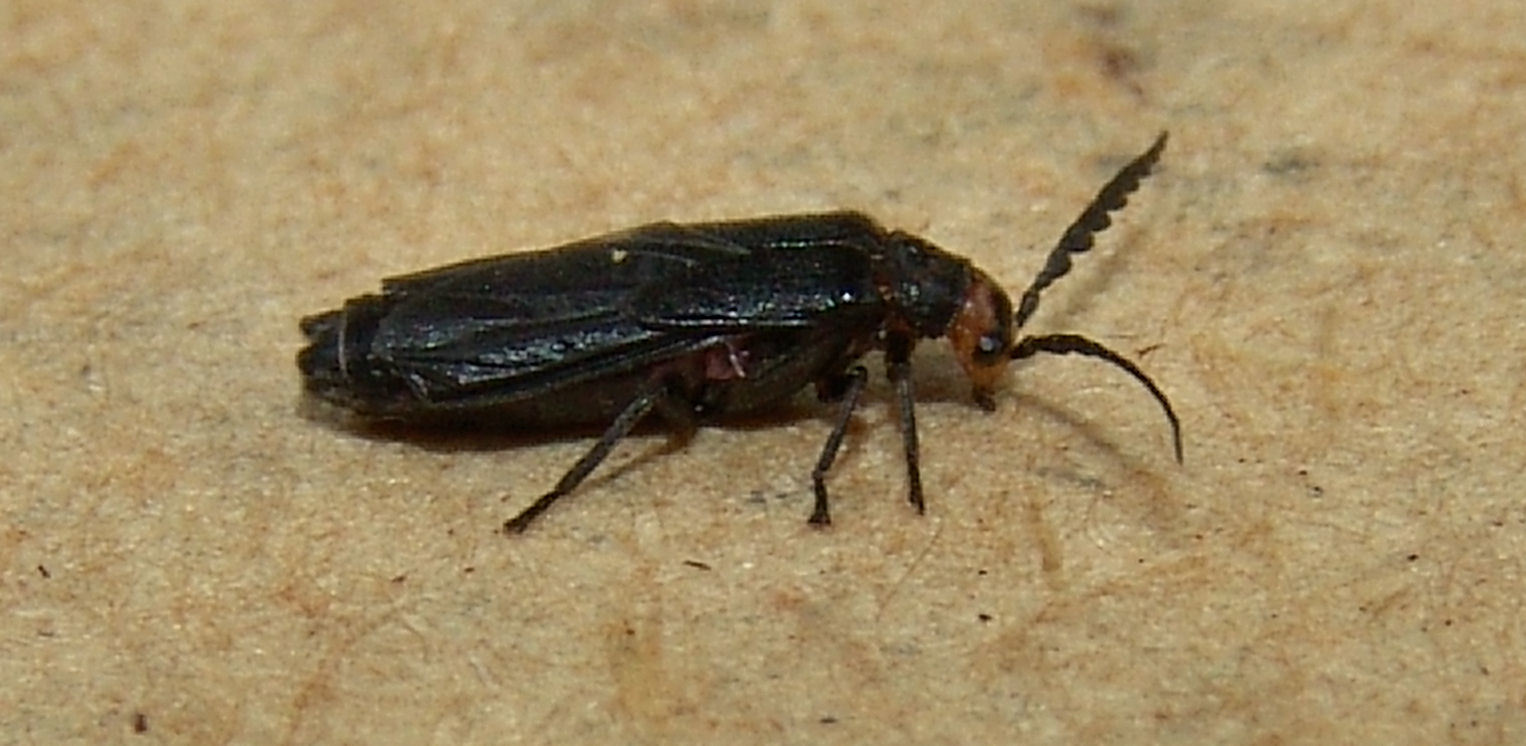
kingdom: Animalia
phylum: Arthropoda
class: Insecta
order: Coleoptera
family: Cantharidae
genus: Tytthonyx
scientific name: Tytthonyx erythrocephalus
